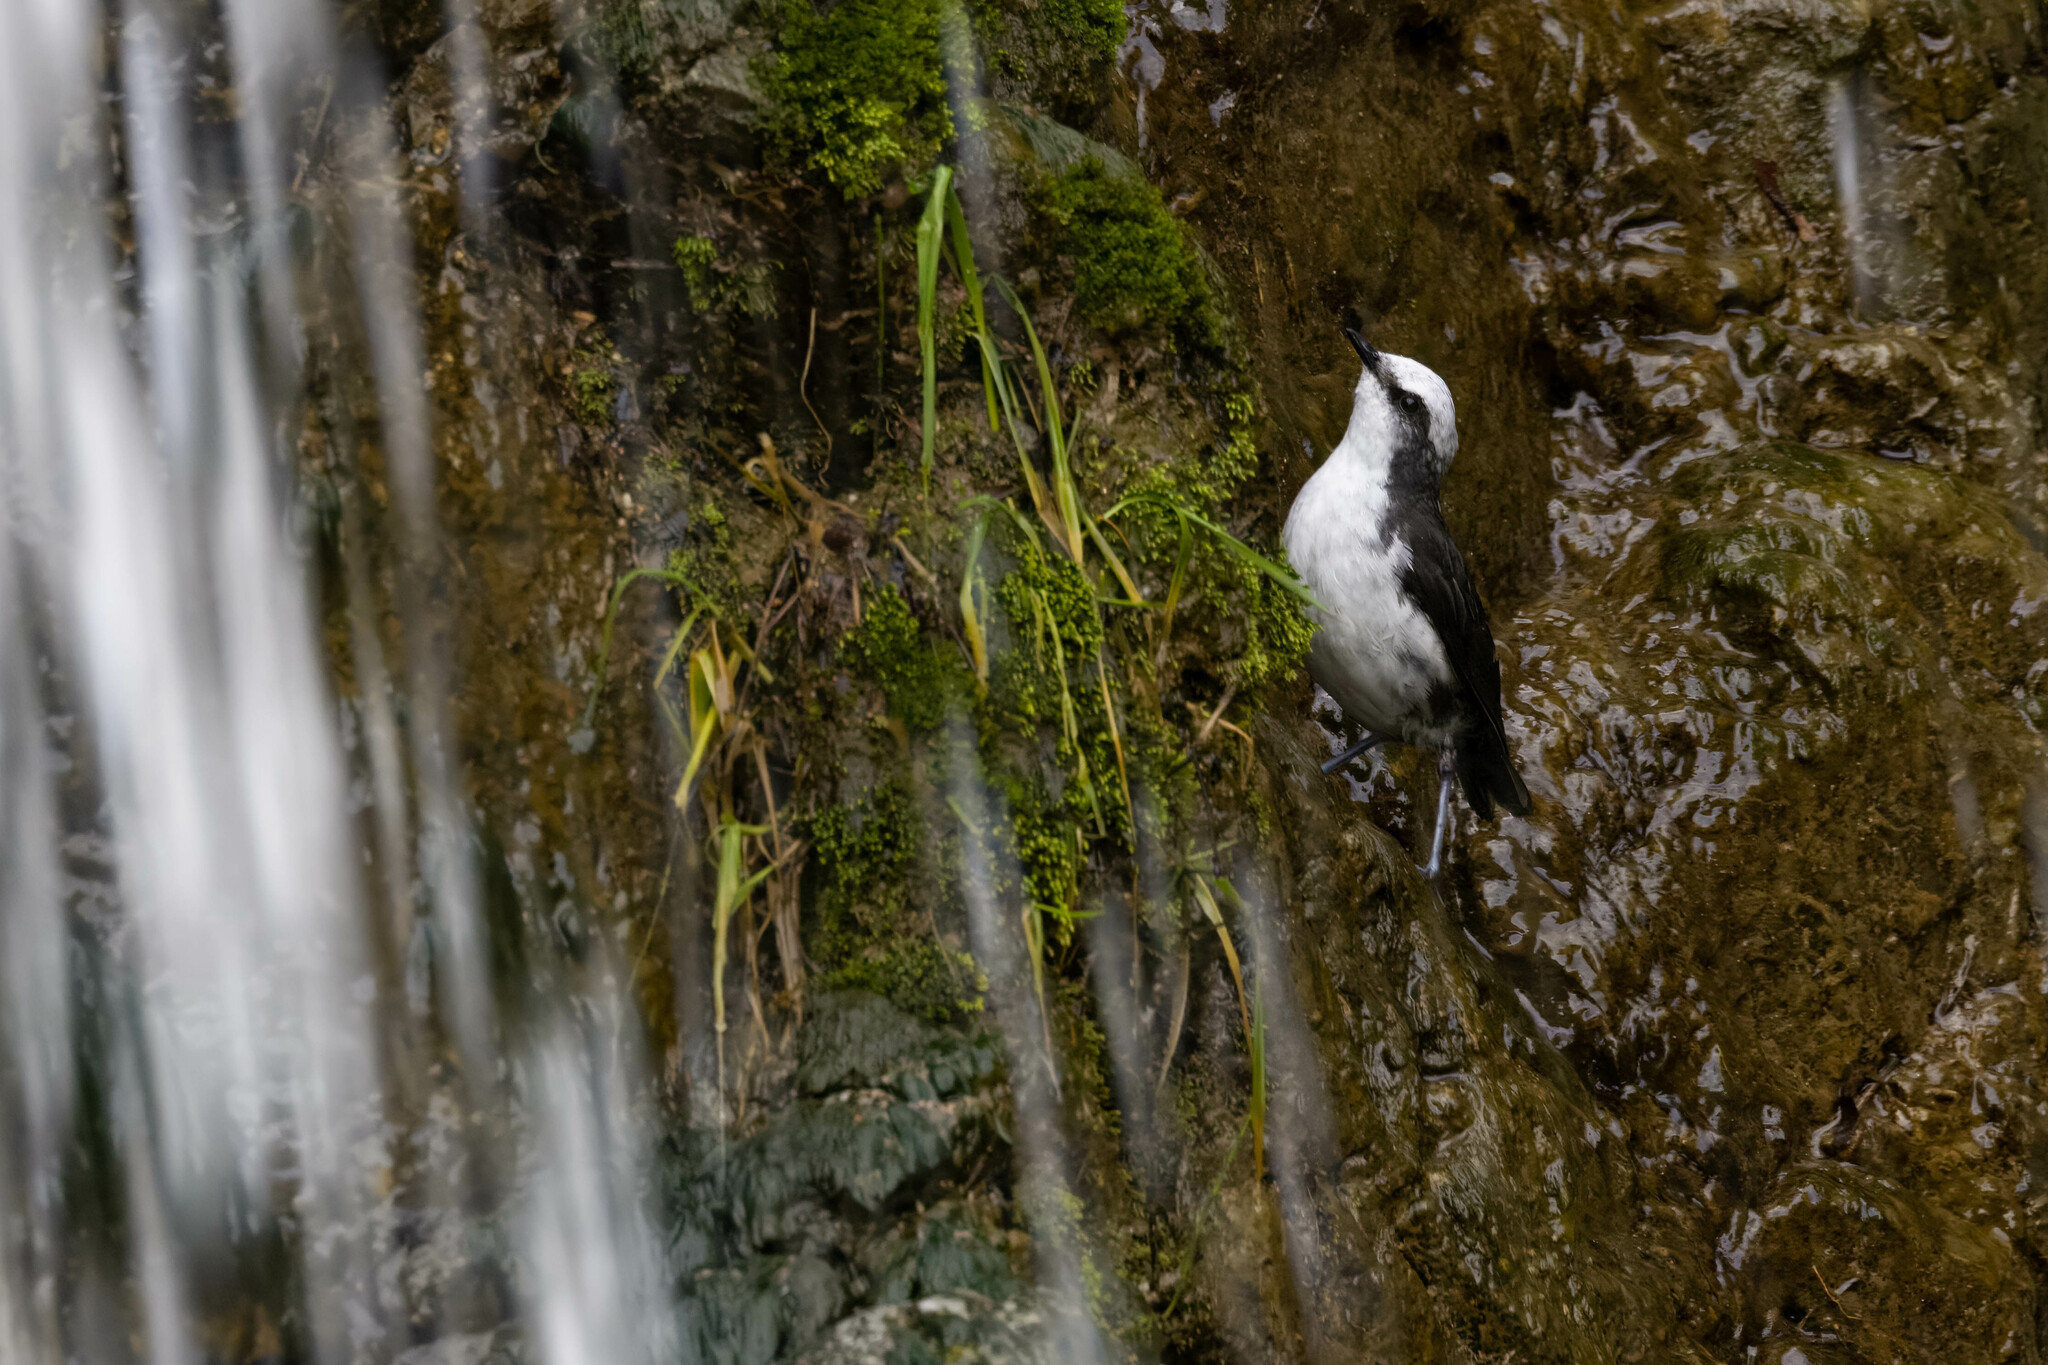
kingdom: Animalia
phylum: Chordata
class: Aves
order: Passeriformes
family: Cinclidae
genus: Cinclus
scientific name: Cinclus leucocephalus
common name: White-capped dipper
